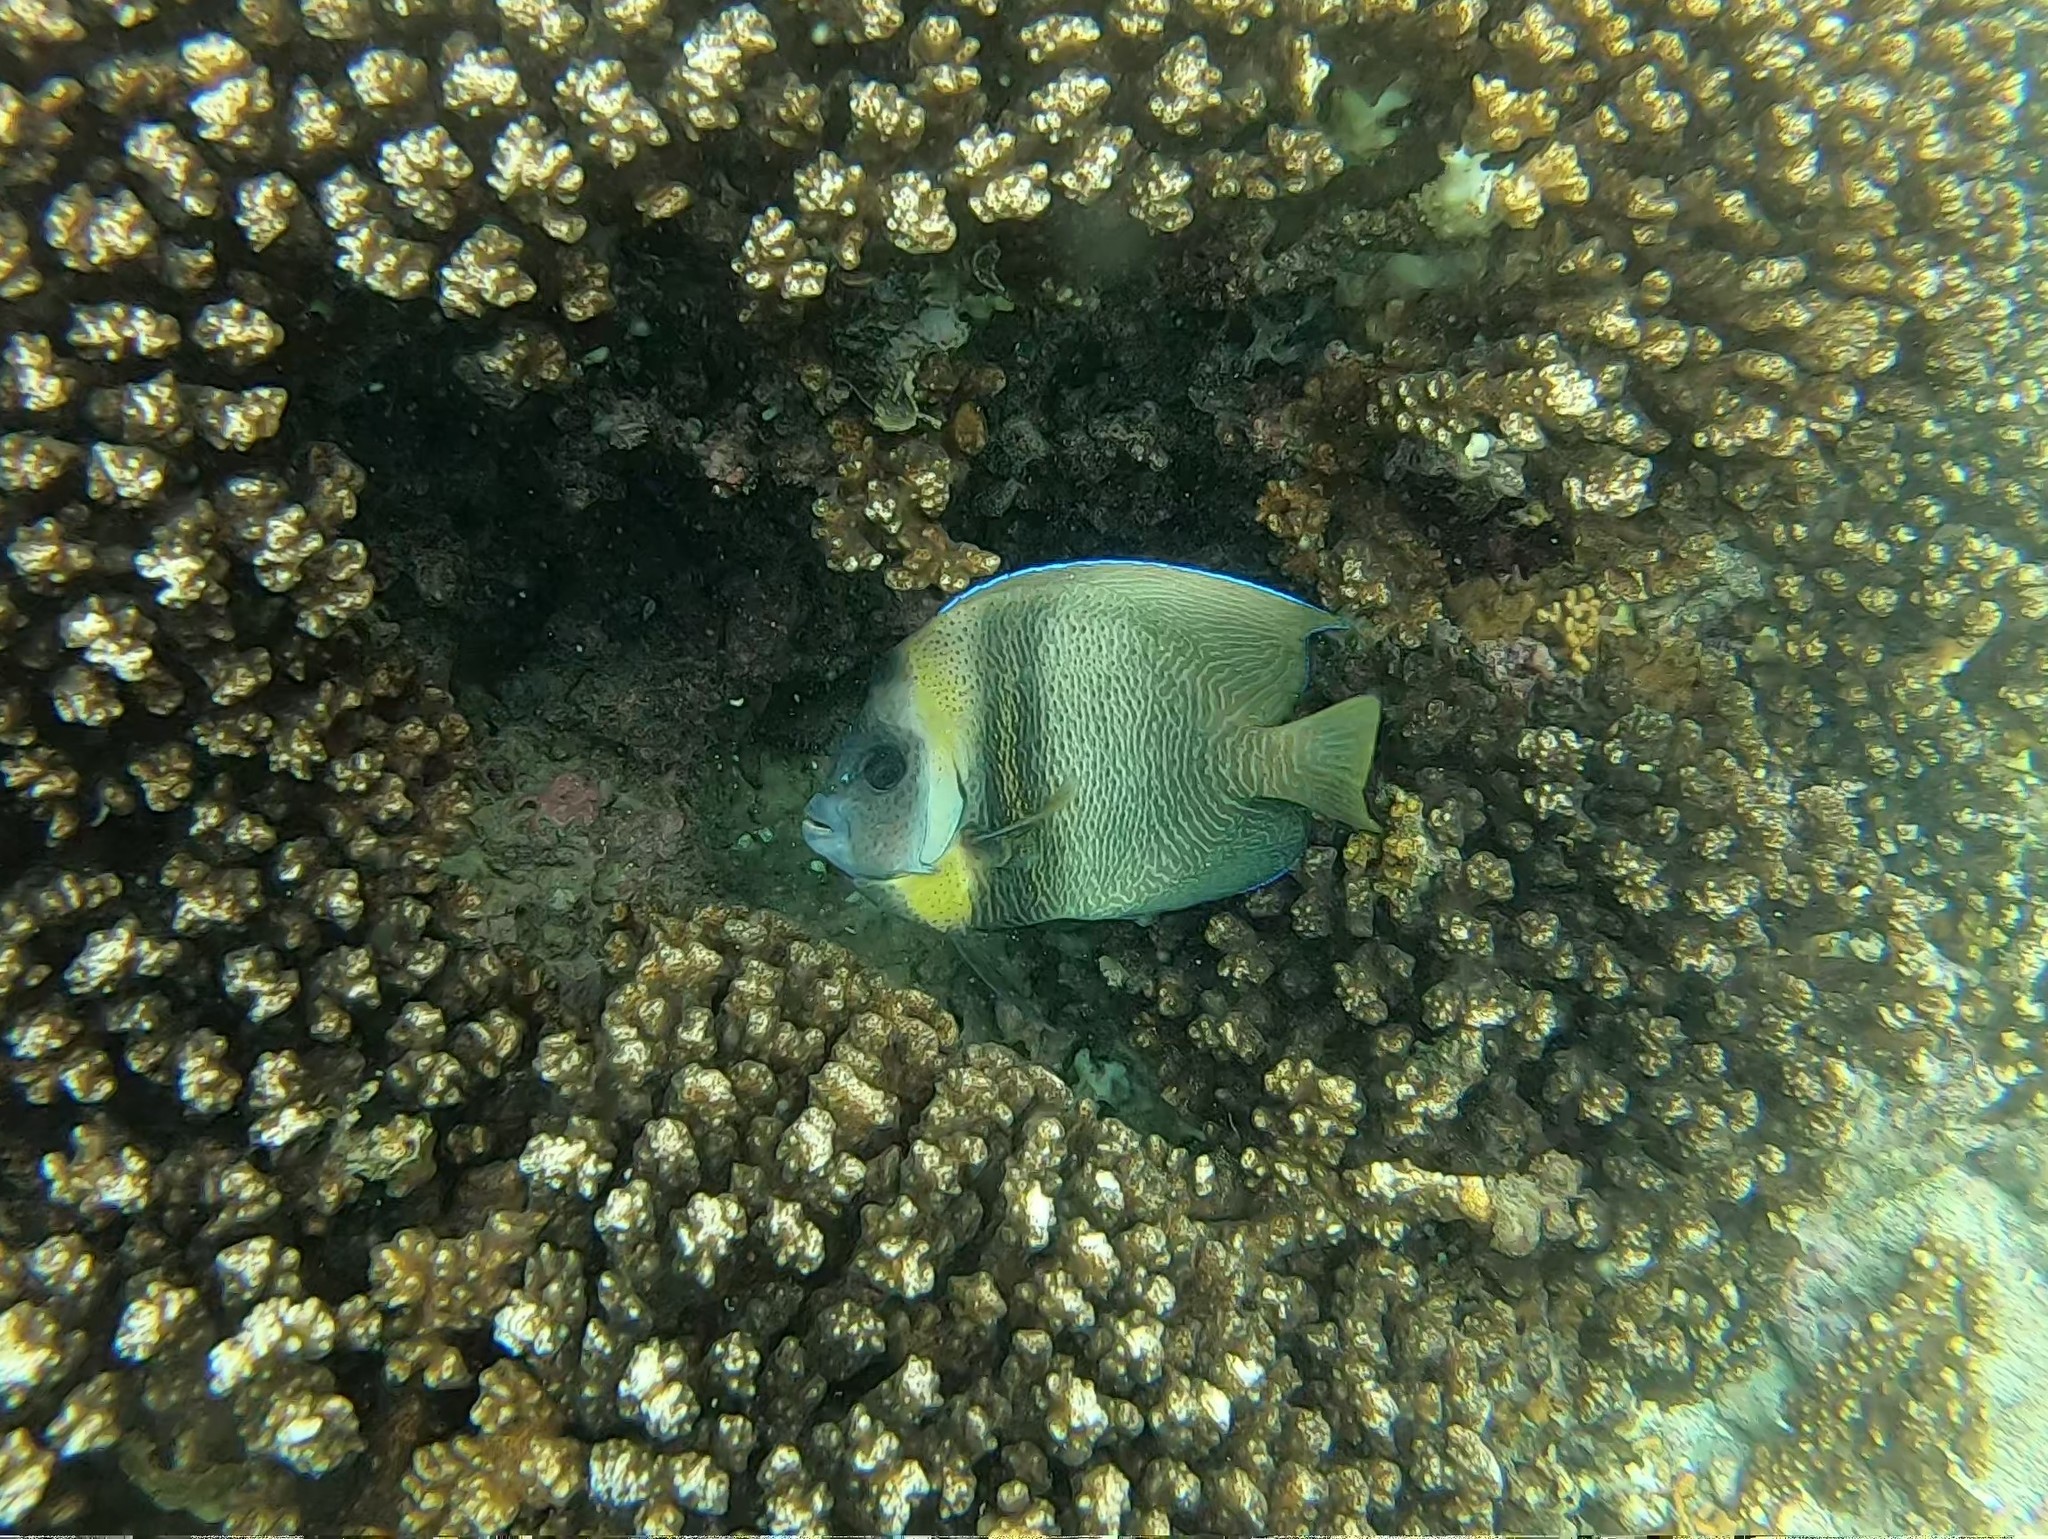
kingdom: Animalia
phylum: Chordata
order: Perciformes
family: Pomacanthidae
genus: Pomacanthus
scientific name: Pomacanthus zonipectus
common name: Cortez angelfish
